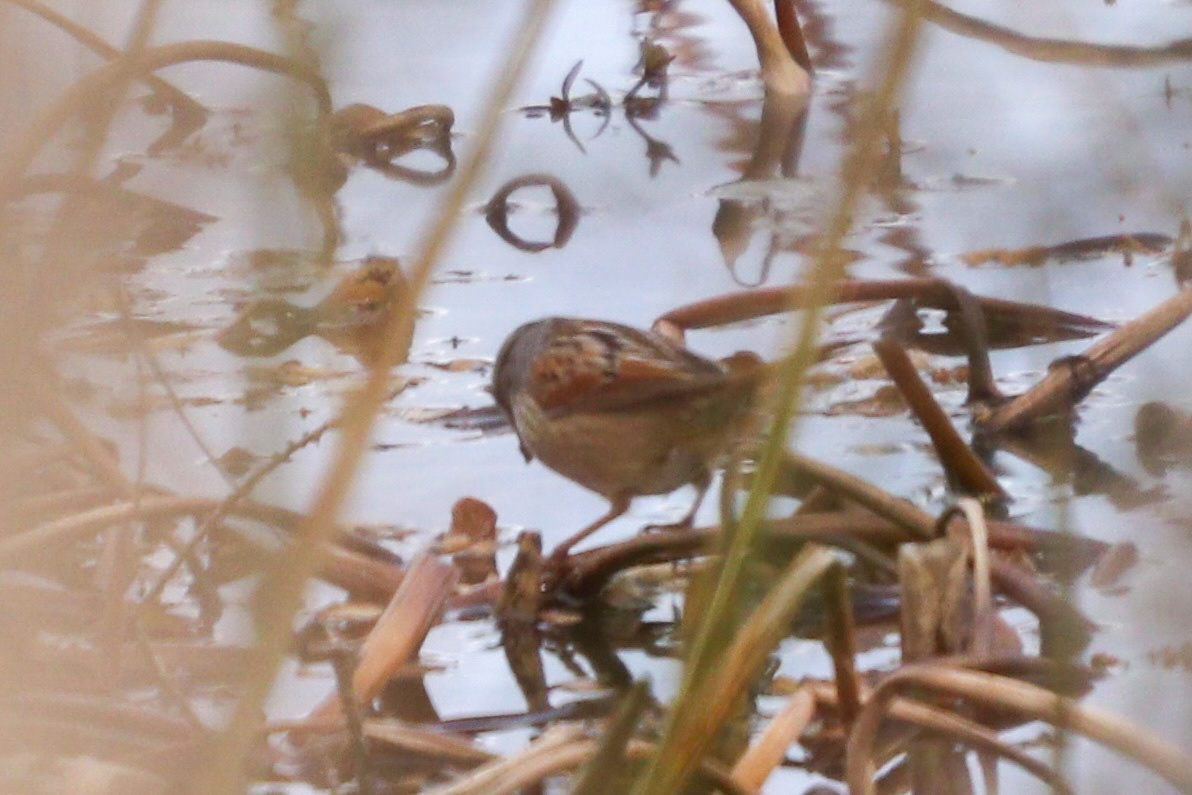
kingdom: Animalia
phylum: Chordata
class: Aves
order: Passeriformes
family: Passerellidae
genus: Melospiza
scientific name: Melospiza georgiana
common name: Swamp sparrow
